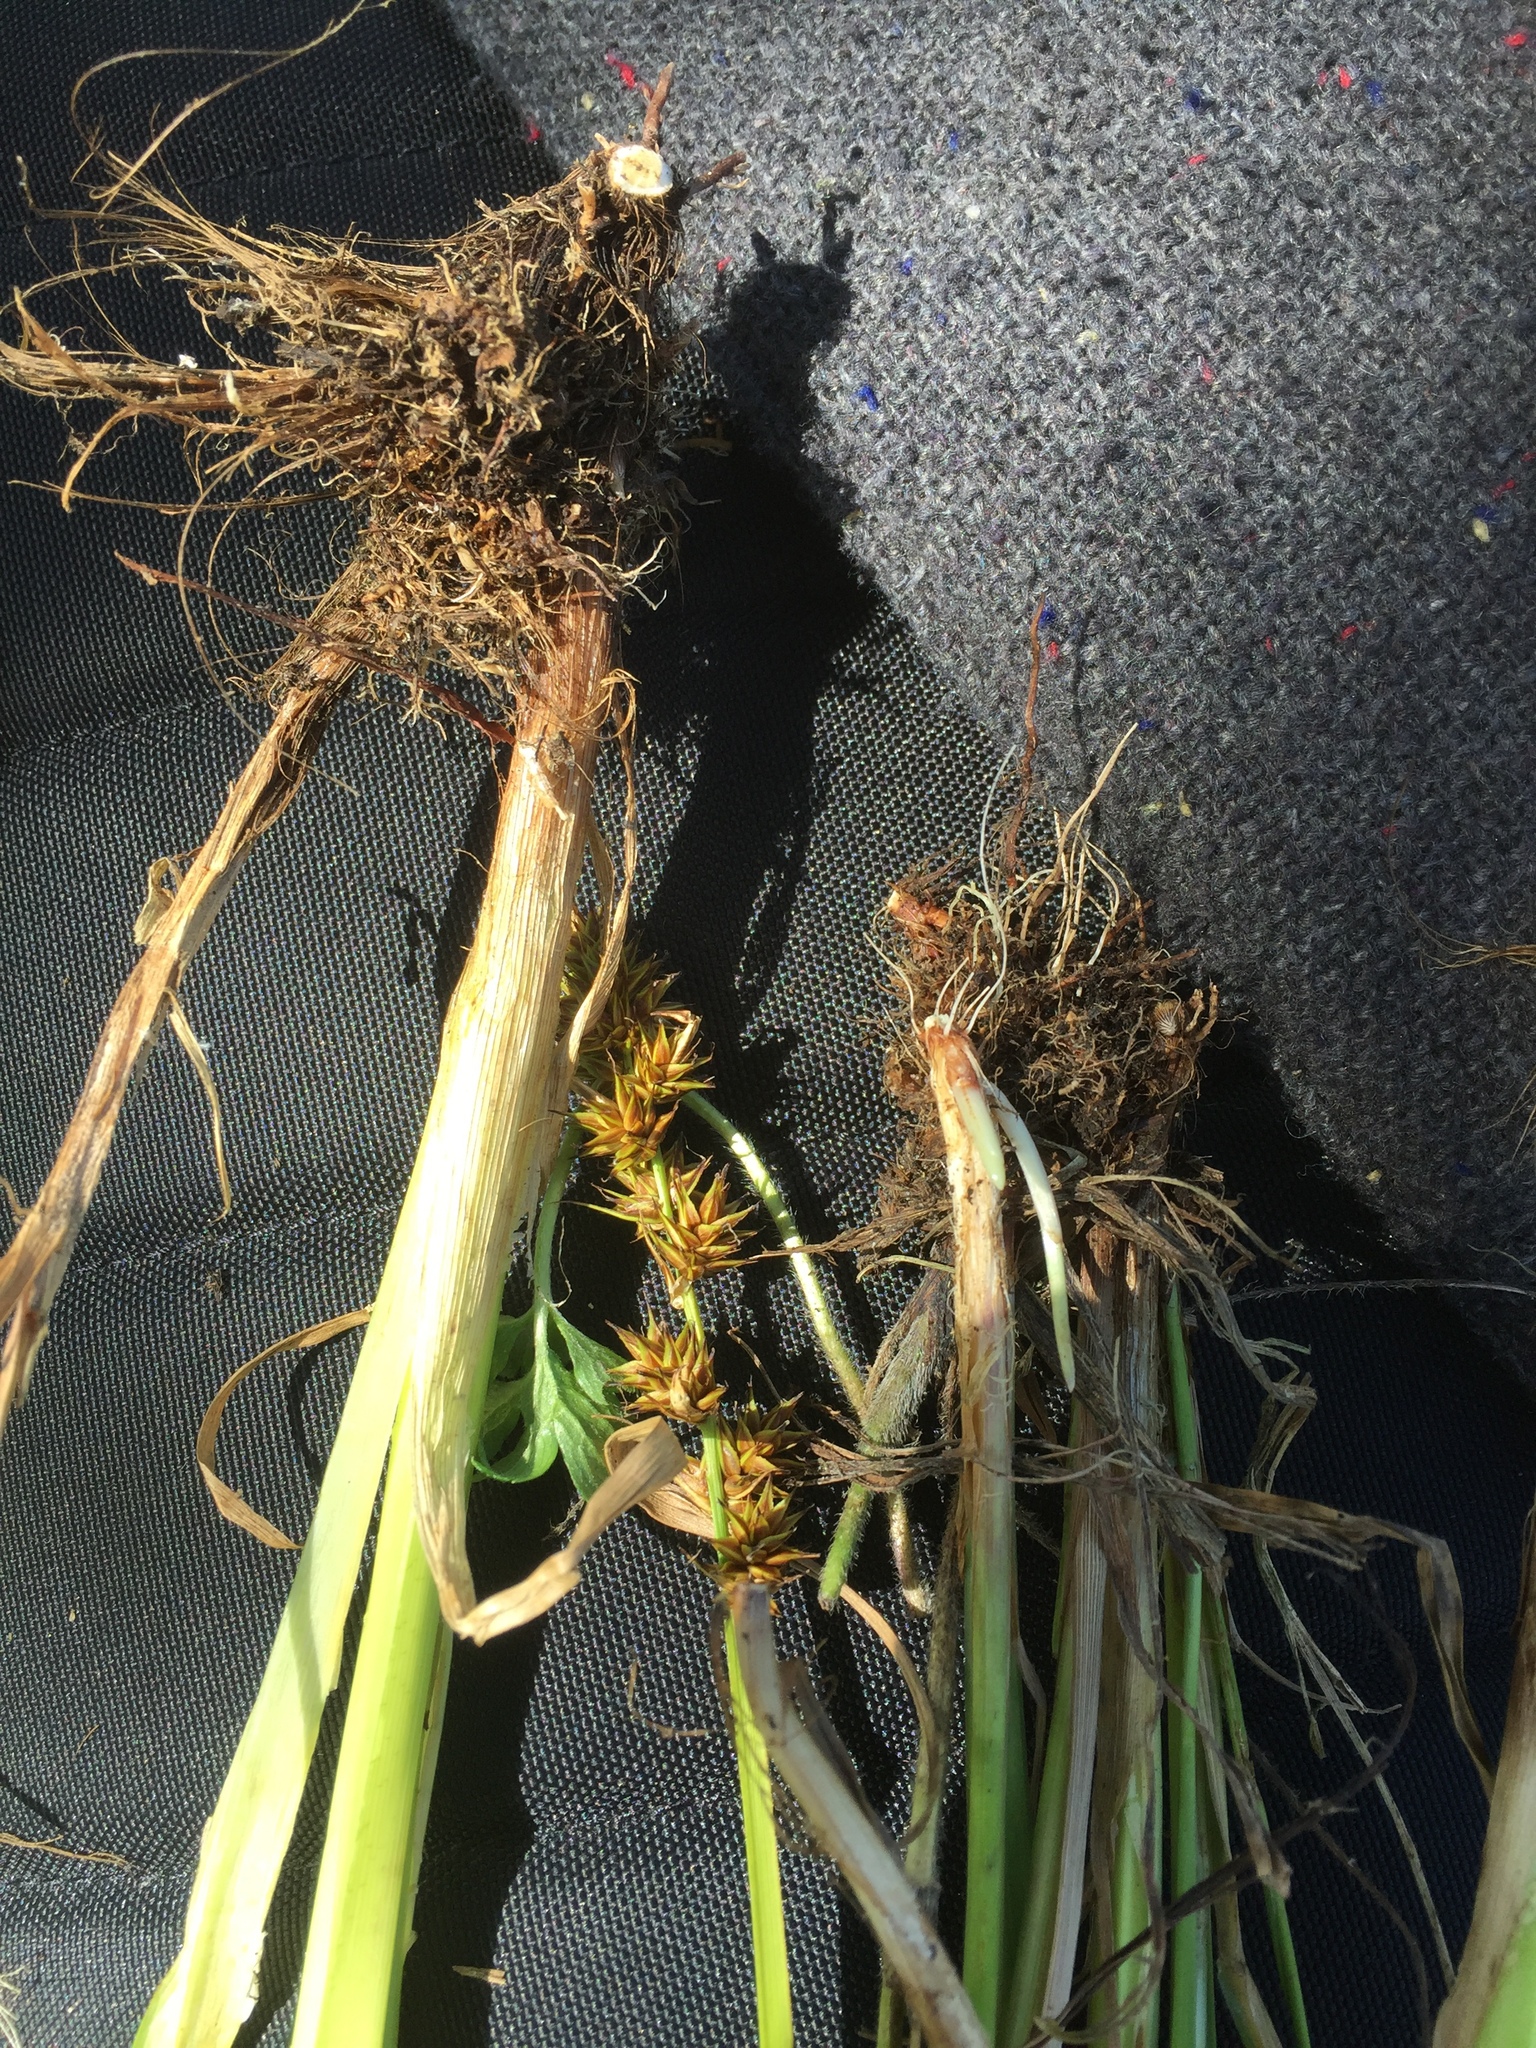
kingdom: Plantae
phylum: Tracheophyta
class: Liliopsida
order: Poales
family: Cyperaceae
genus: Carex
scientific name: Carex appropinquata
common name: Fibrous tussock-sedge
